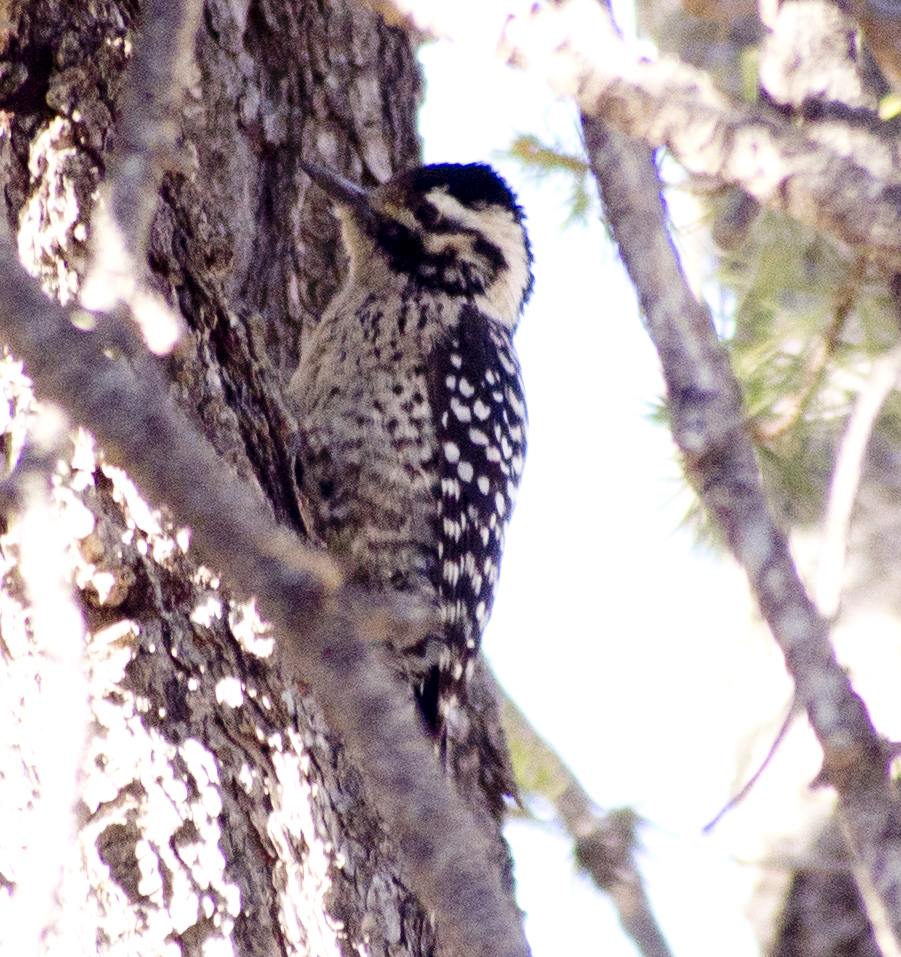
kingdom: Animalia
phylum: Chordata
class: Aves
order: Piciformes
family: Picidae
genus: Dryobates
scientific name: Dryobates scalaris
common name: Ladder-backed woodpecker
